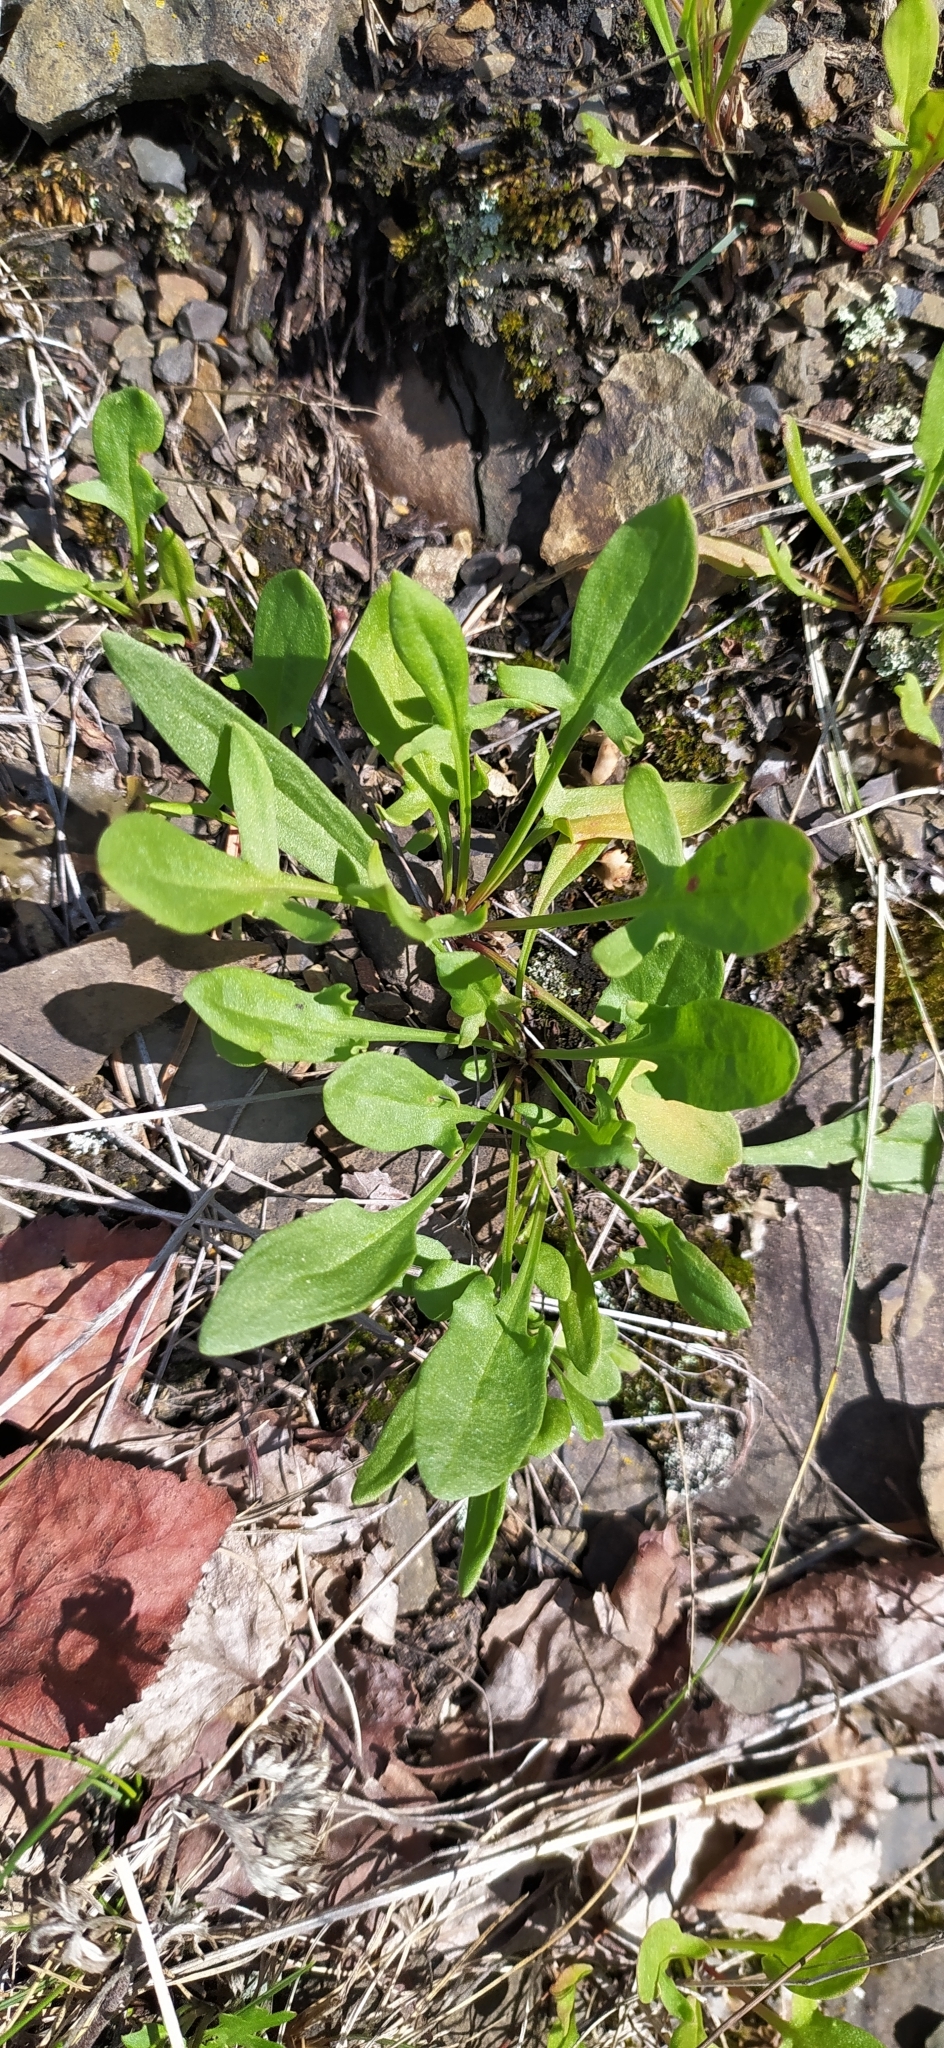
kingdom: Plantae
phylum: Tracheophyta
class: Magnoliopsida
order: Caryophyllales
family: Polygonaceae
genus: Rumex
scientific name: Rumex acetosella
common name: Common sheep sorrel
